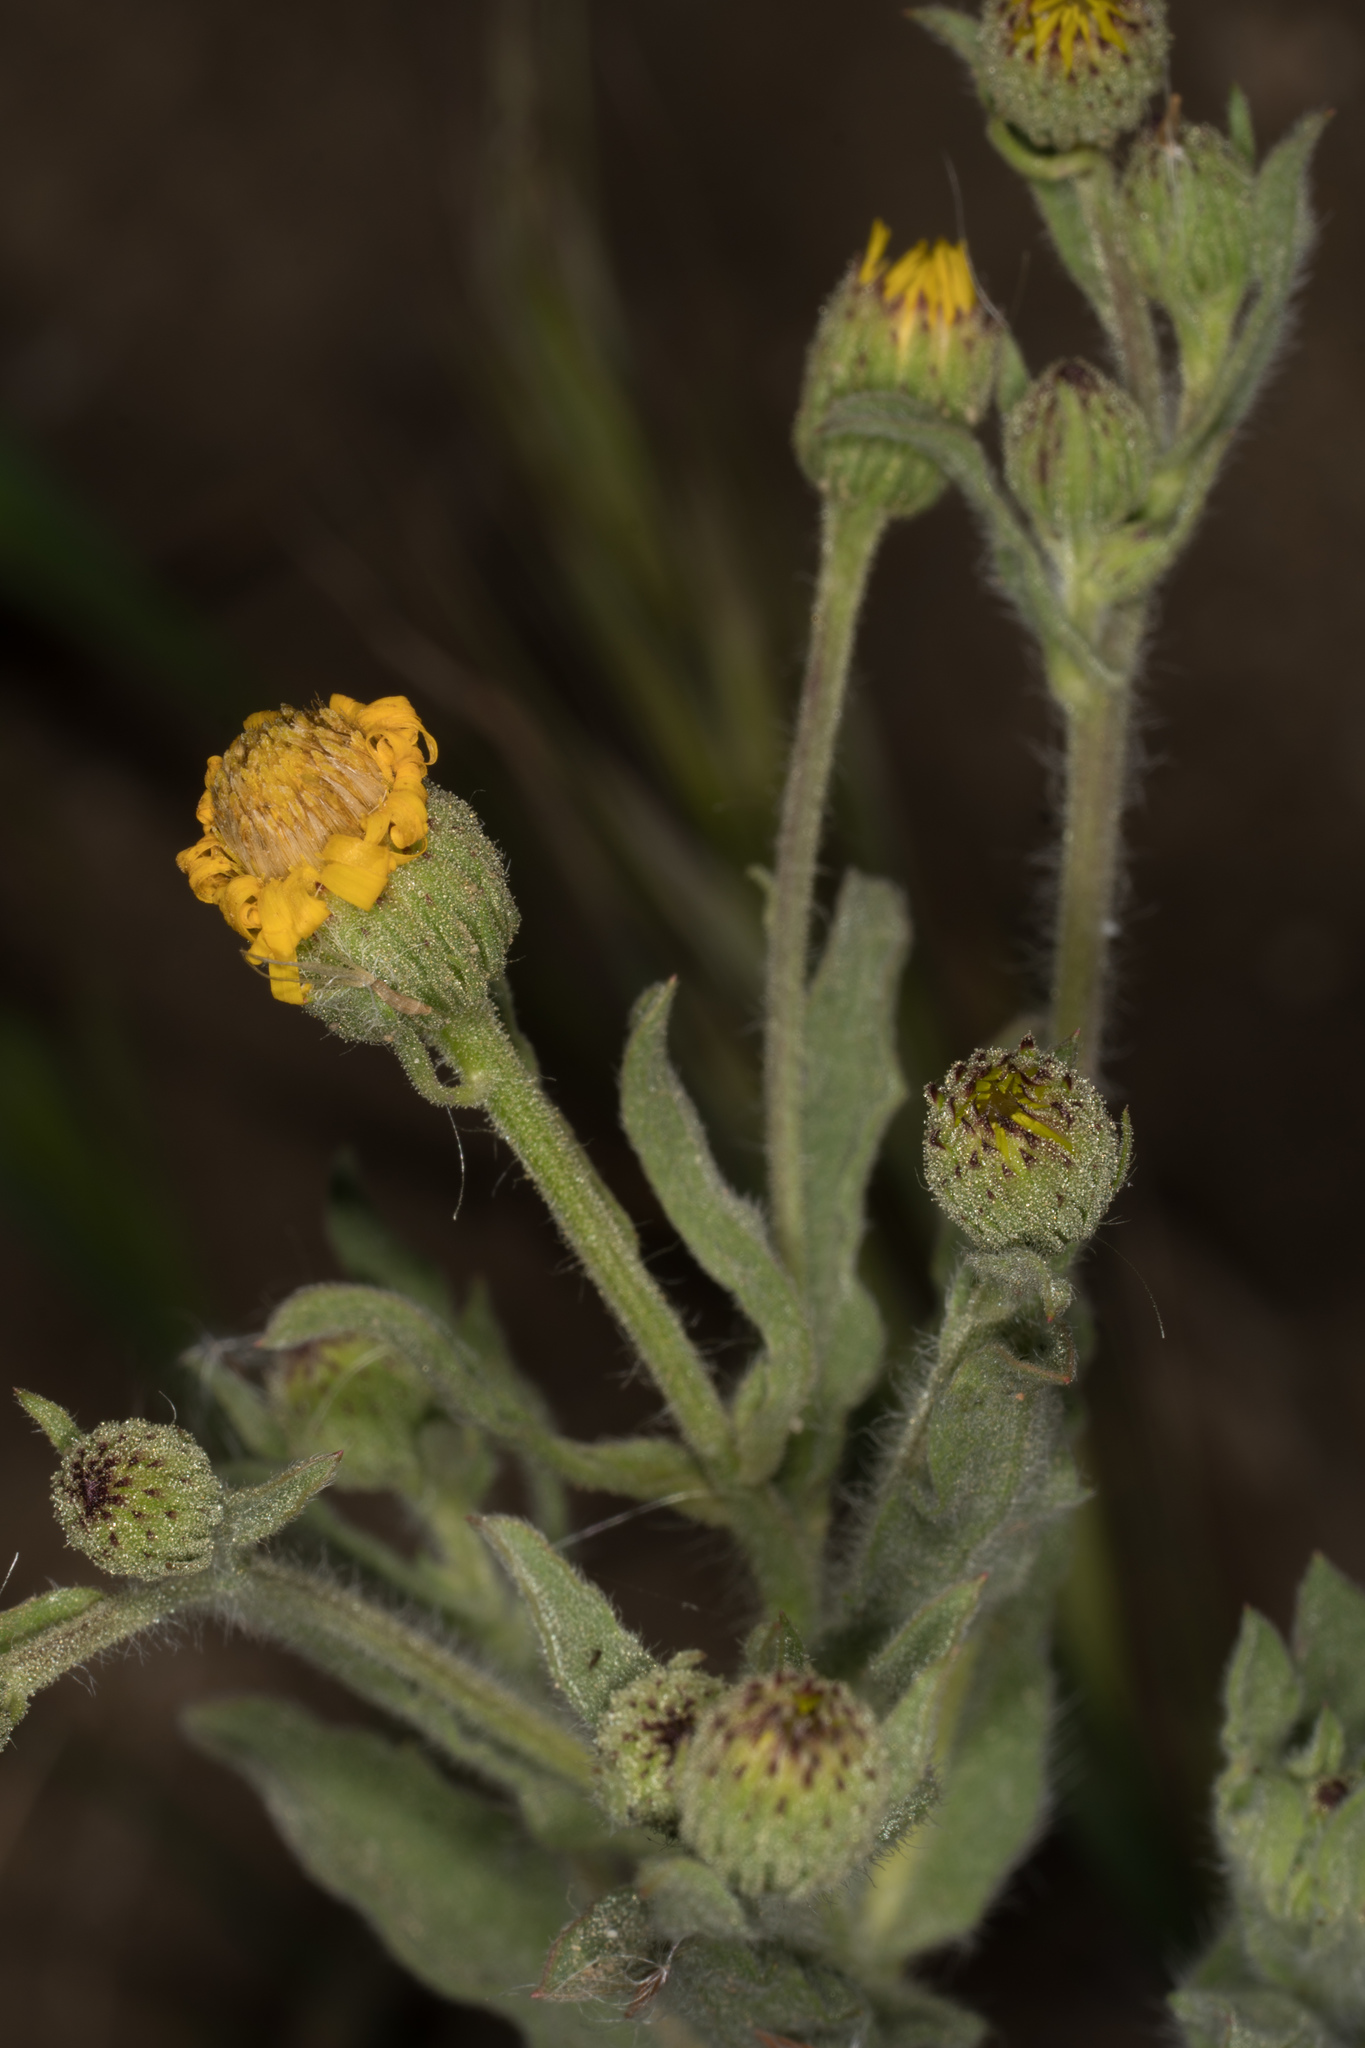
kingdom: Plantae
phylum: Tracheophyta
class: Magnoliopsida
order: Asterales
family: Asteraceae
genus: Heterotheca
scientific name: Heterotheca grandiflora
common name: Telegraphweed
